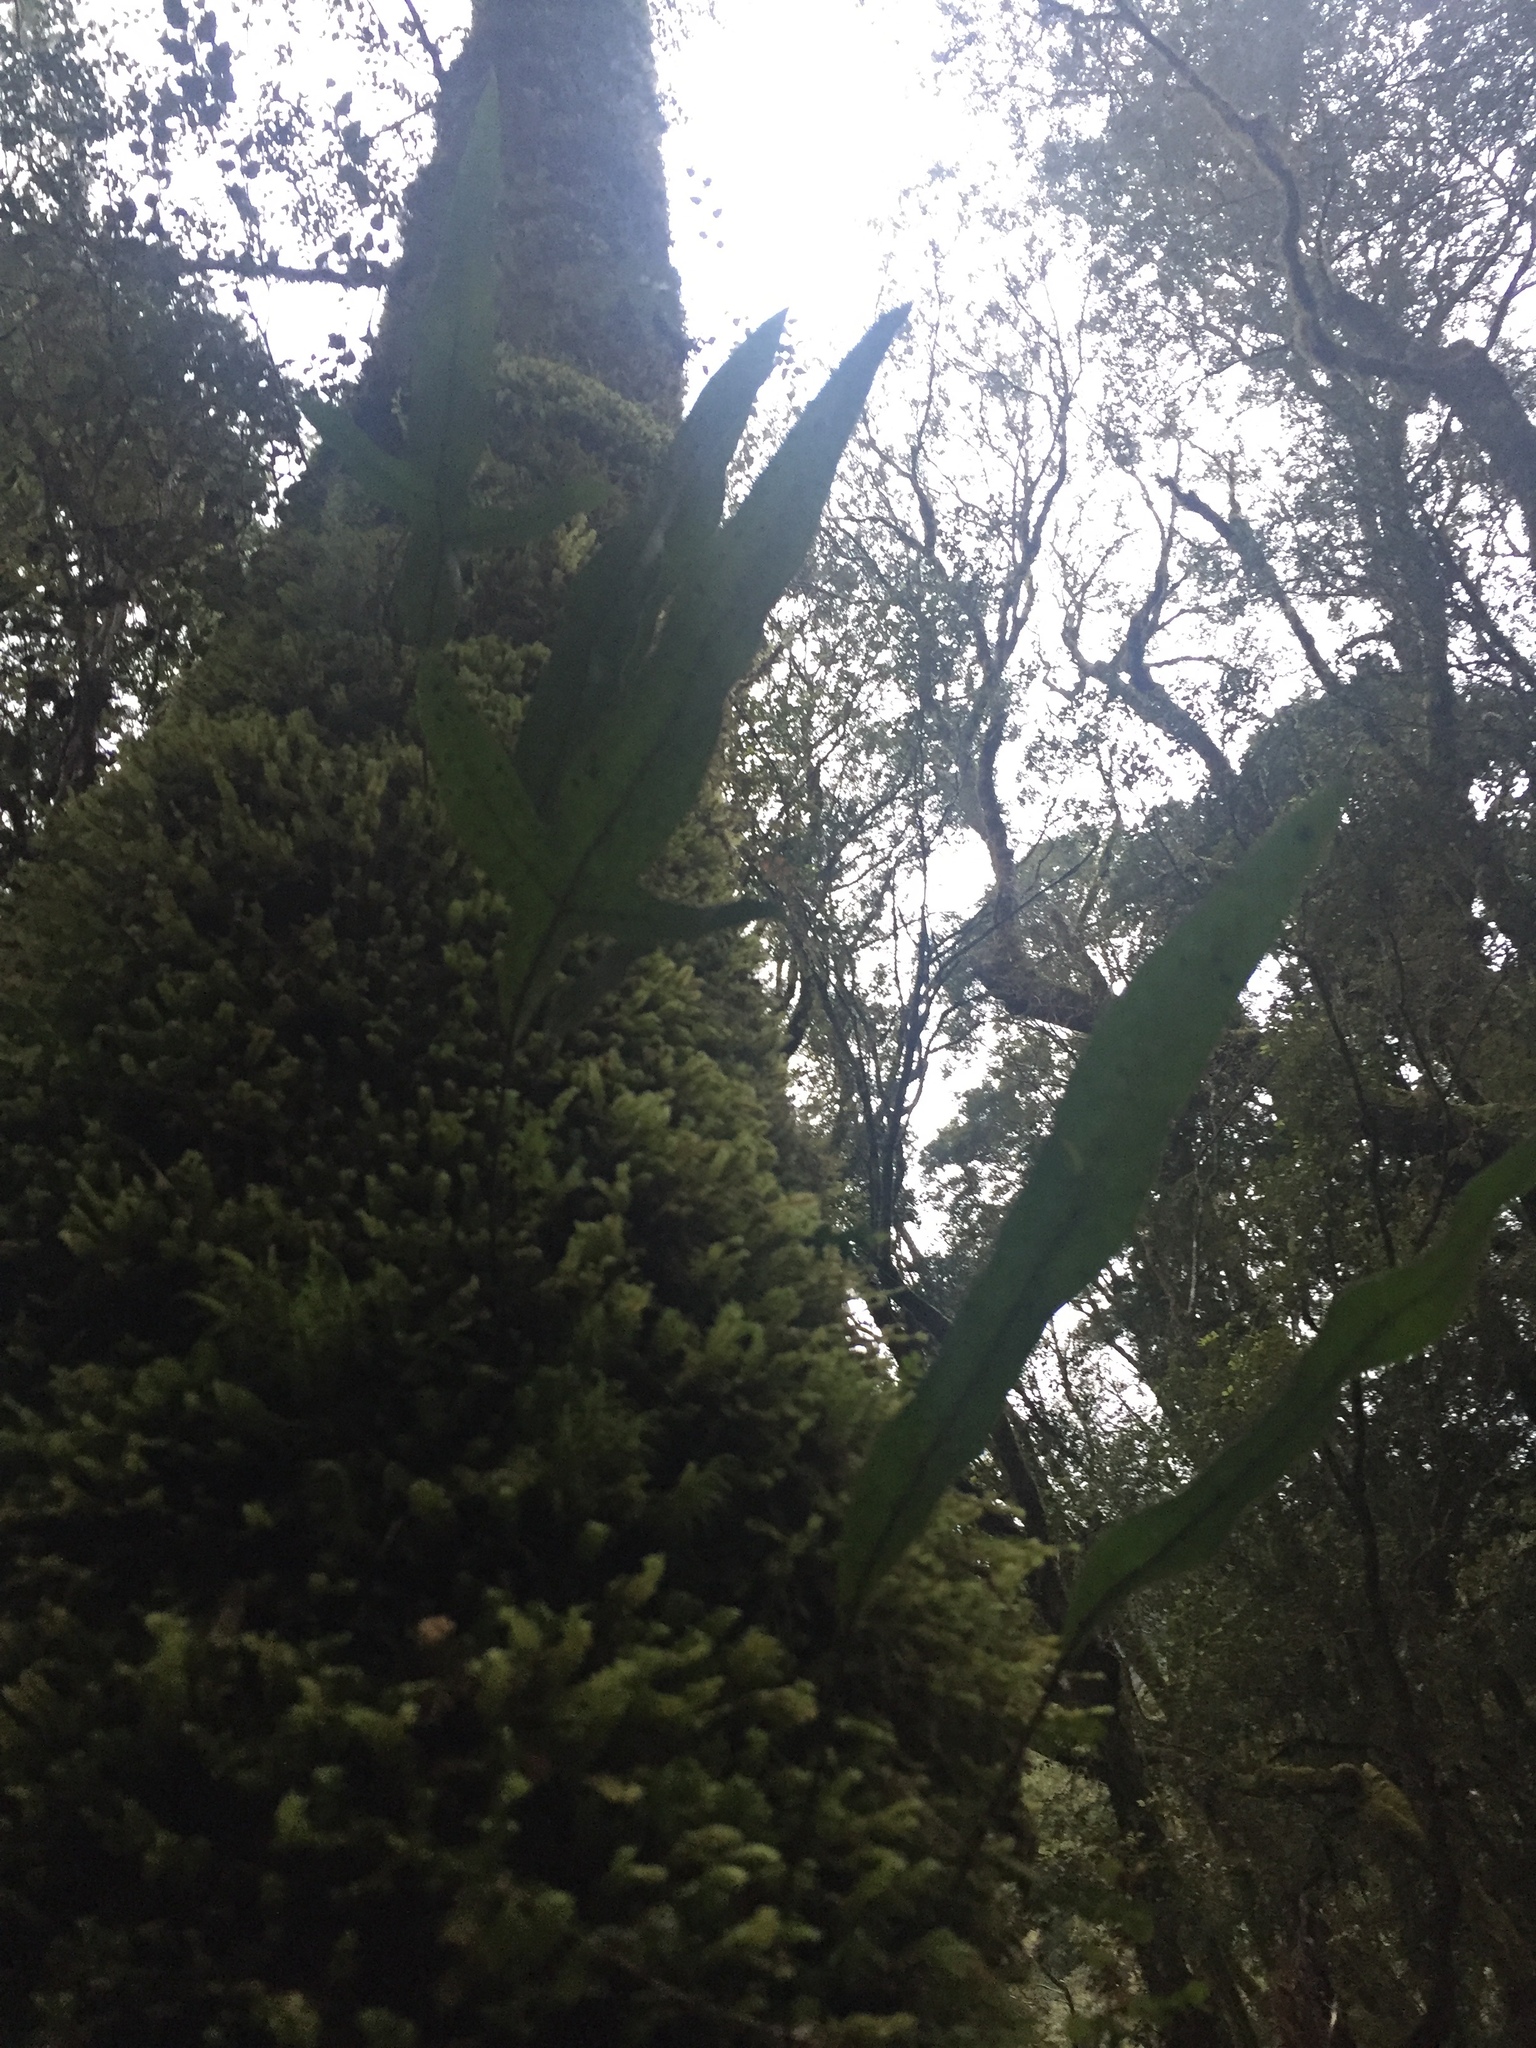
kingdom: Plantae
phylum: Tracheophyta
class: Polypodiopsida
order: Polypodiales
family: Polypodiaceae
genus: Lecanopteris
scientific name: Lecanopteris pustulata
